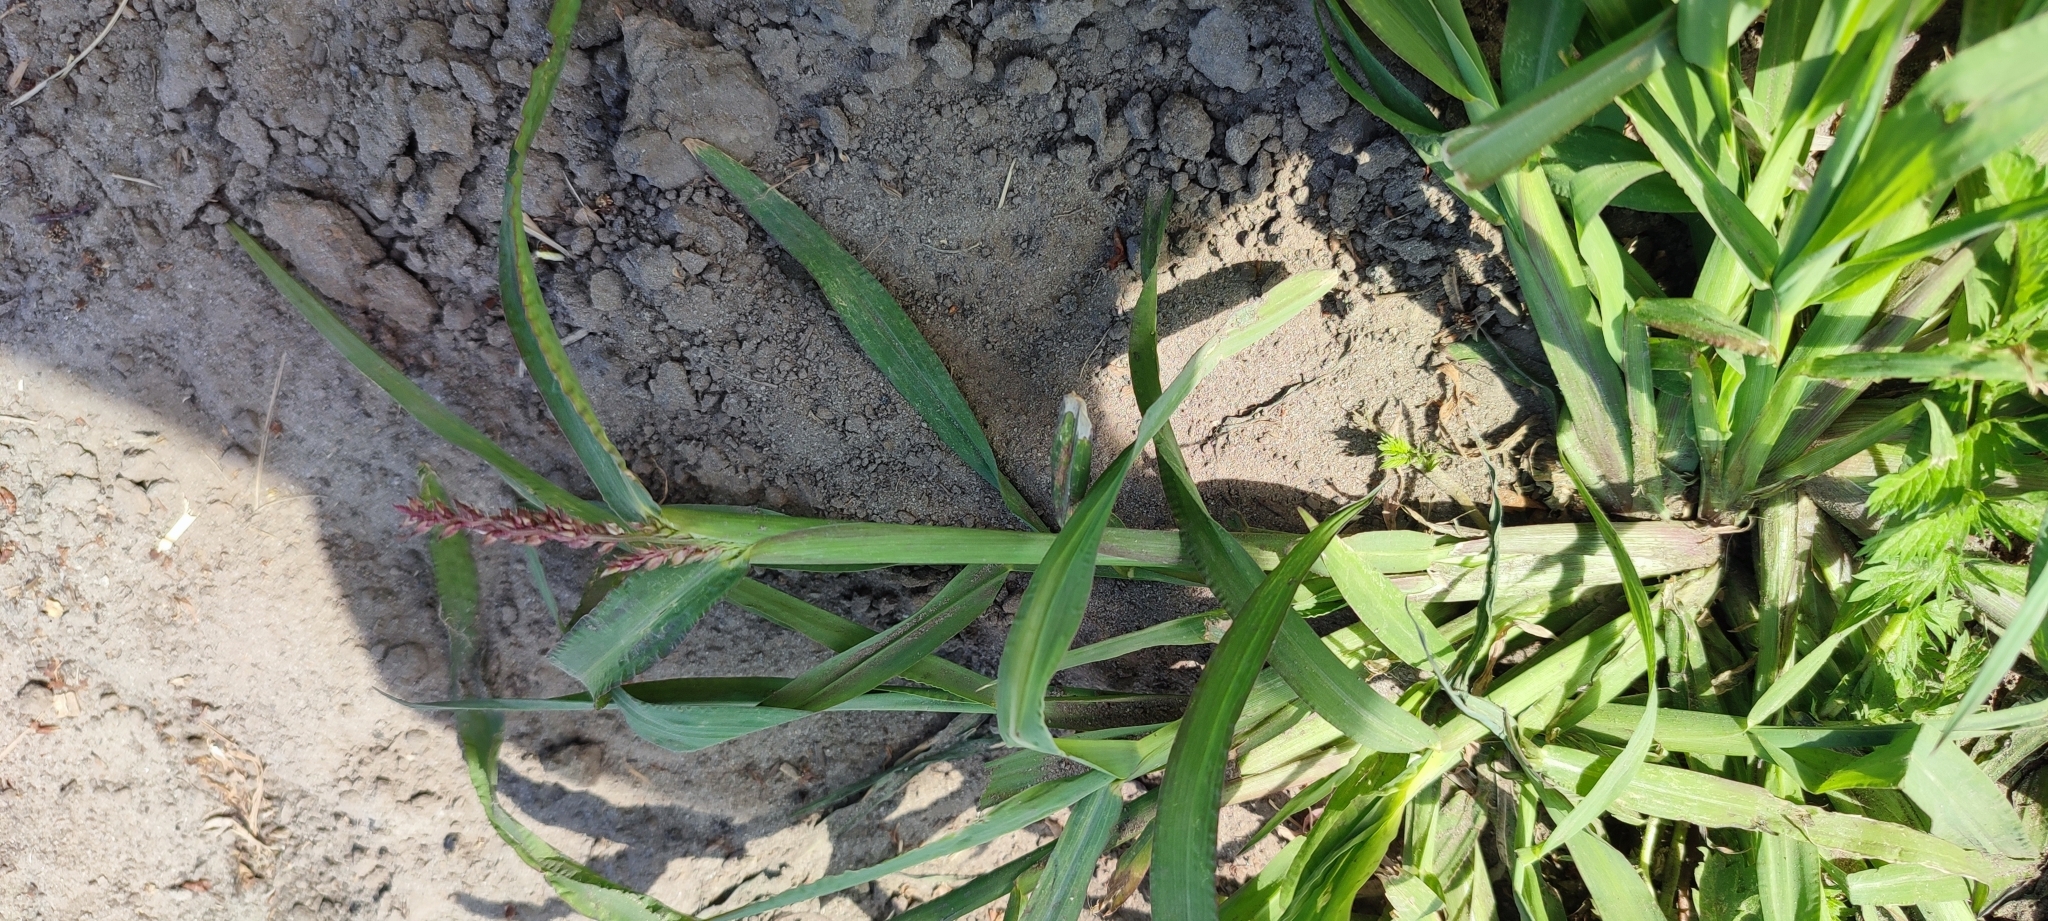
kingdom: Plantae
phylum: Tracheophyta
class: Liliopsida
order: Poales
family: Poaceae
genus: Echinochloa
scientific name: Echinochloa crus-galli
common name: Cockspur
